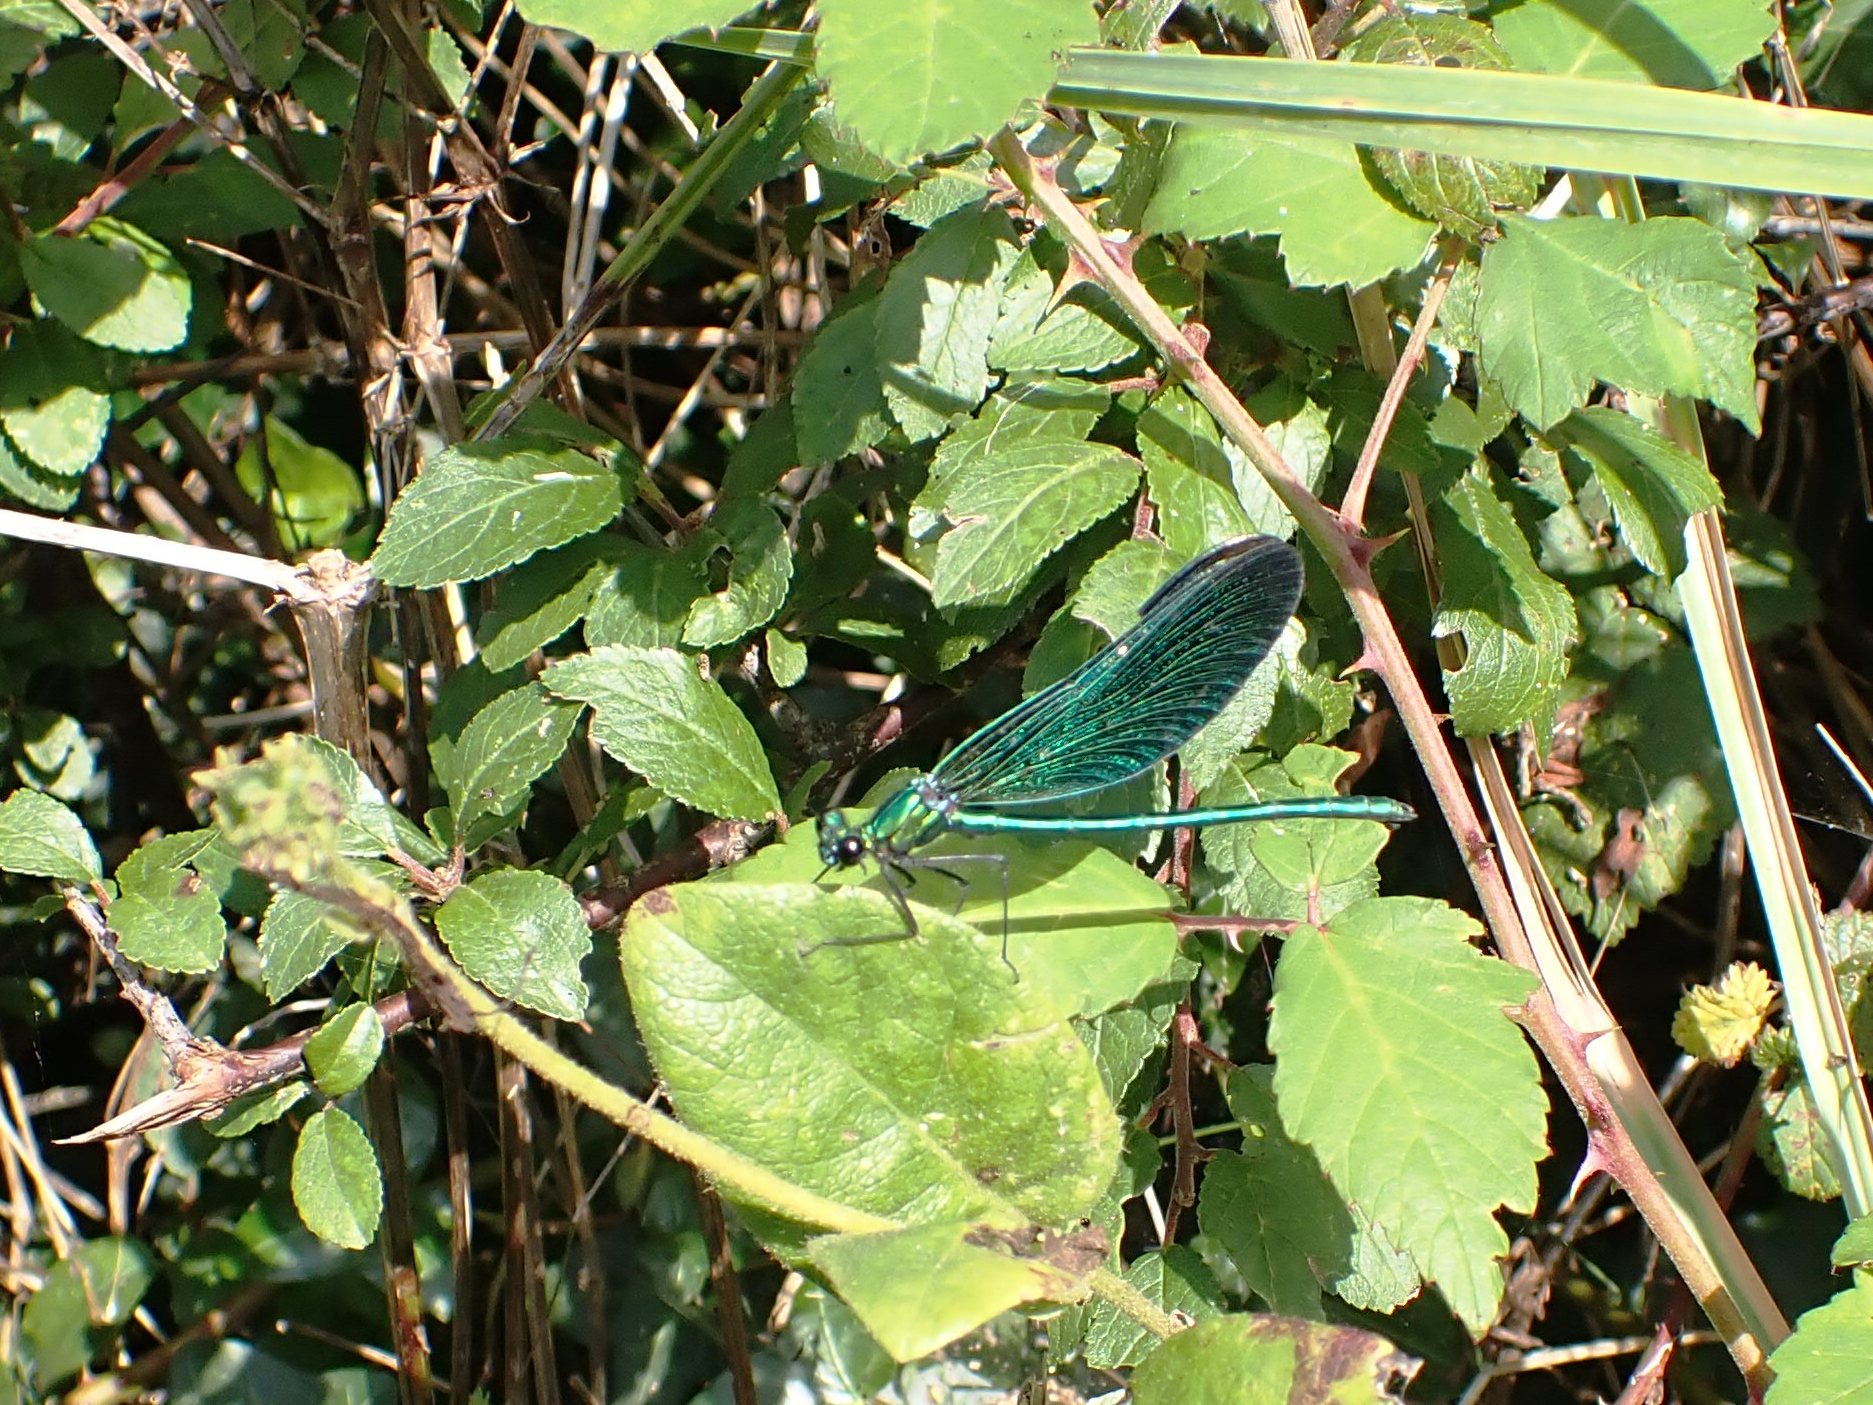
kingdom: Animalia
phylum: Arthropoda
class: Insecta
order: Odonata
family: Calopterygidae
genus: Calopteryx
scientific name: Calopteryx virgo
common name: Beautiful demoiselle
